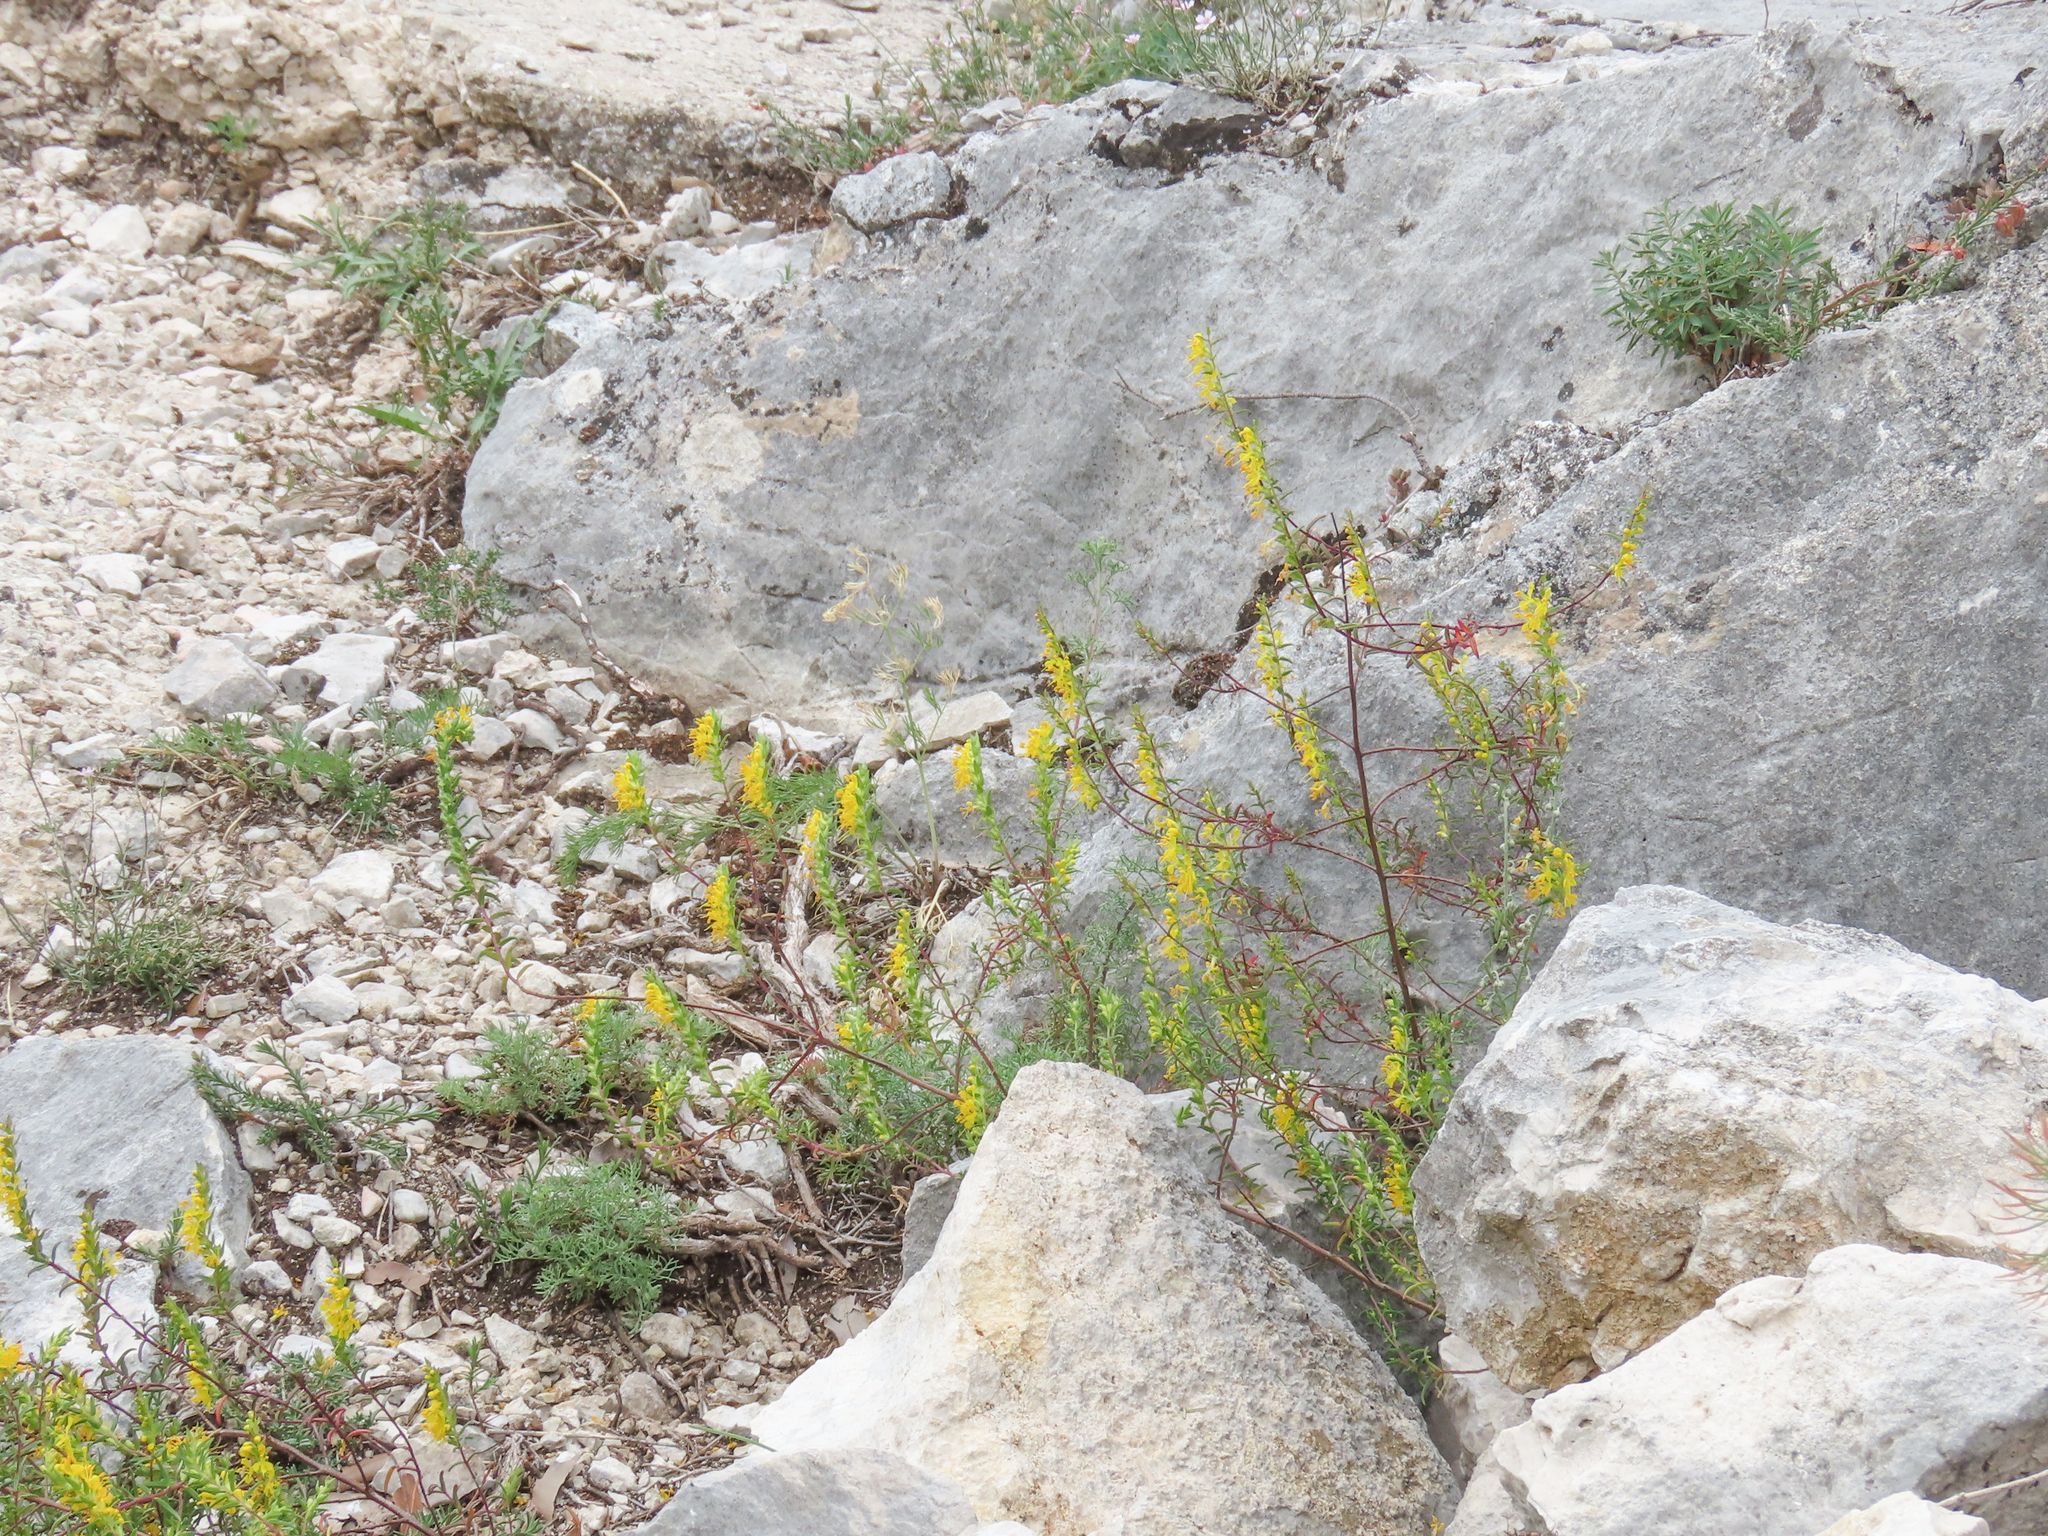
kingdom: Plantae
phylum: Tracheophyta
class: Magnoliopsida
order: Lamiales
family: Orobanchaceae
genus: Odontites
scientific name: Odontites luteus
